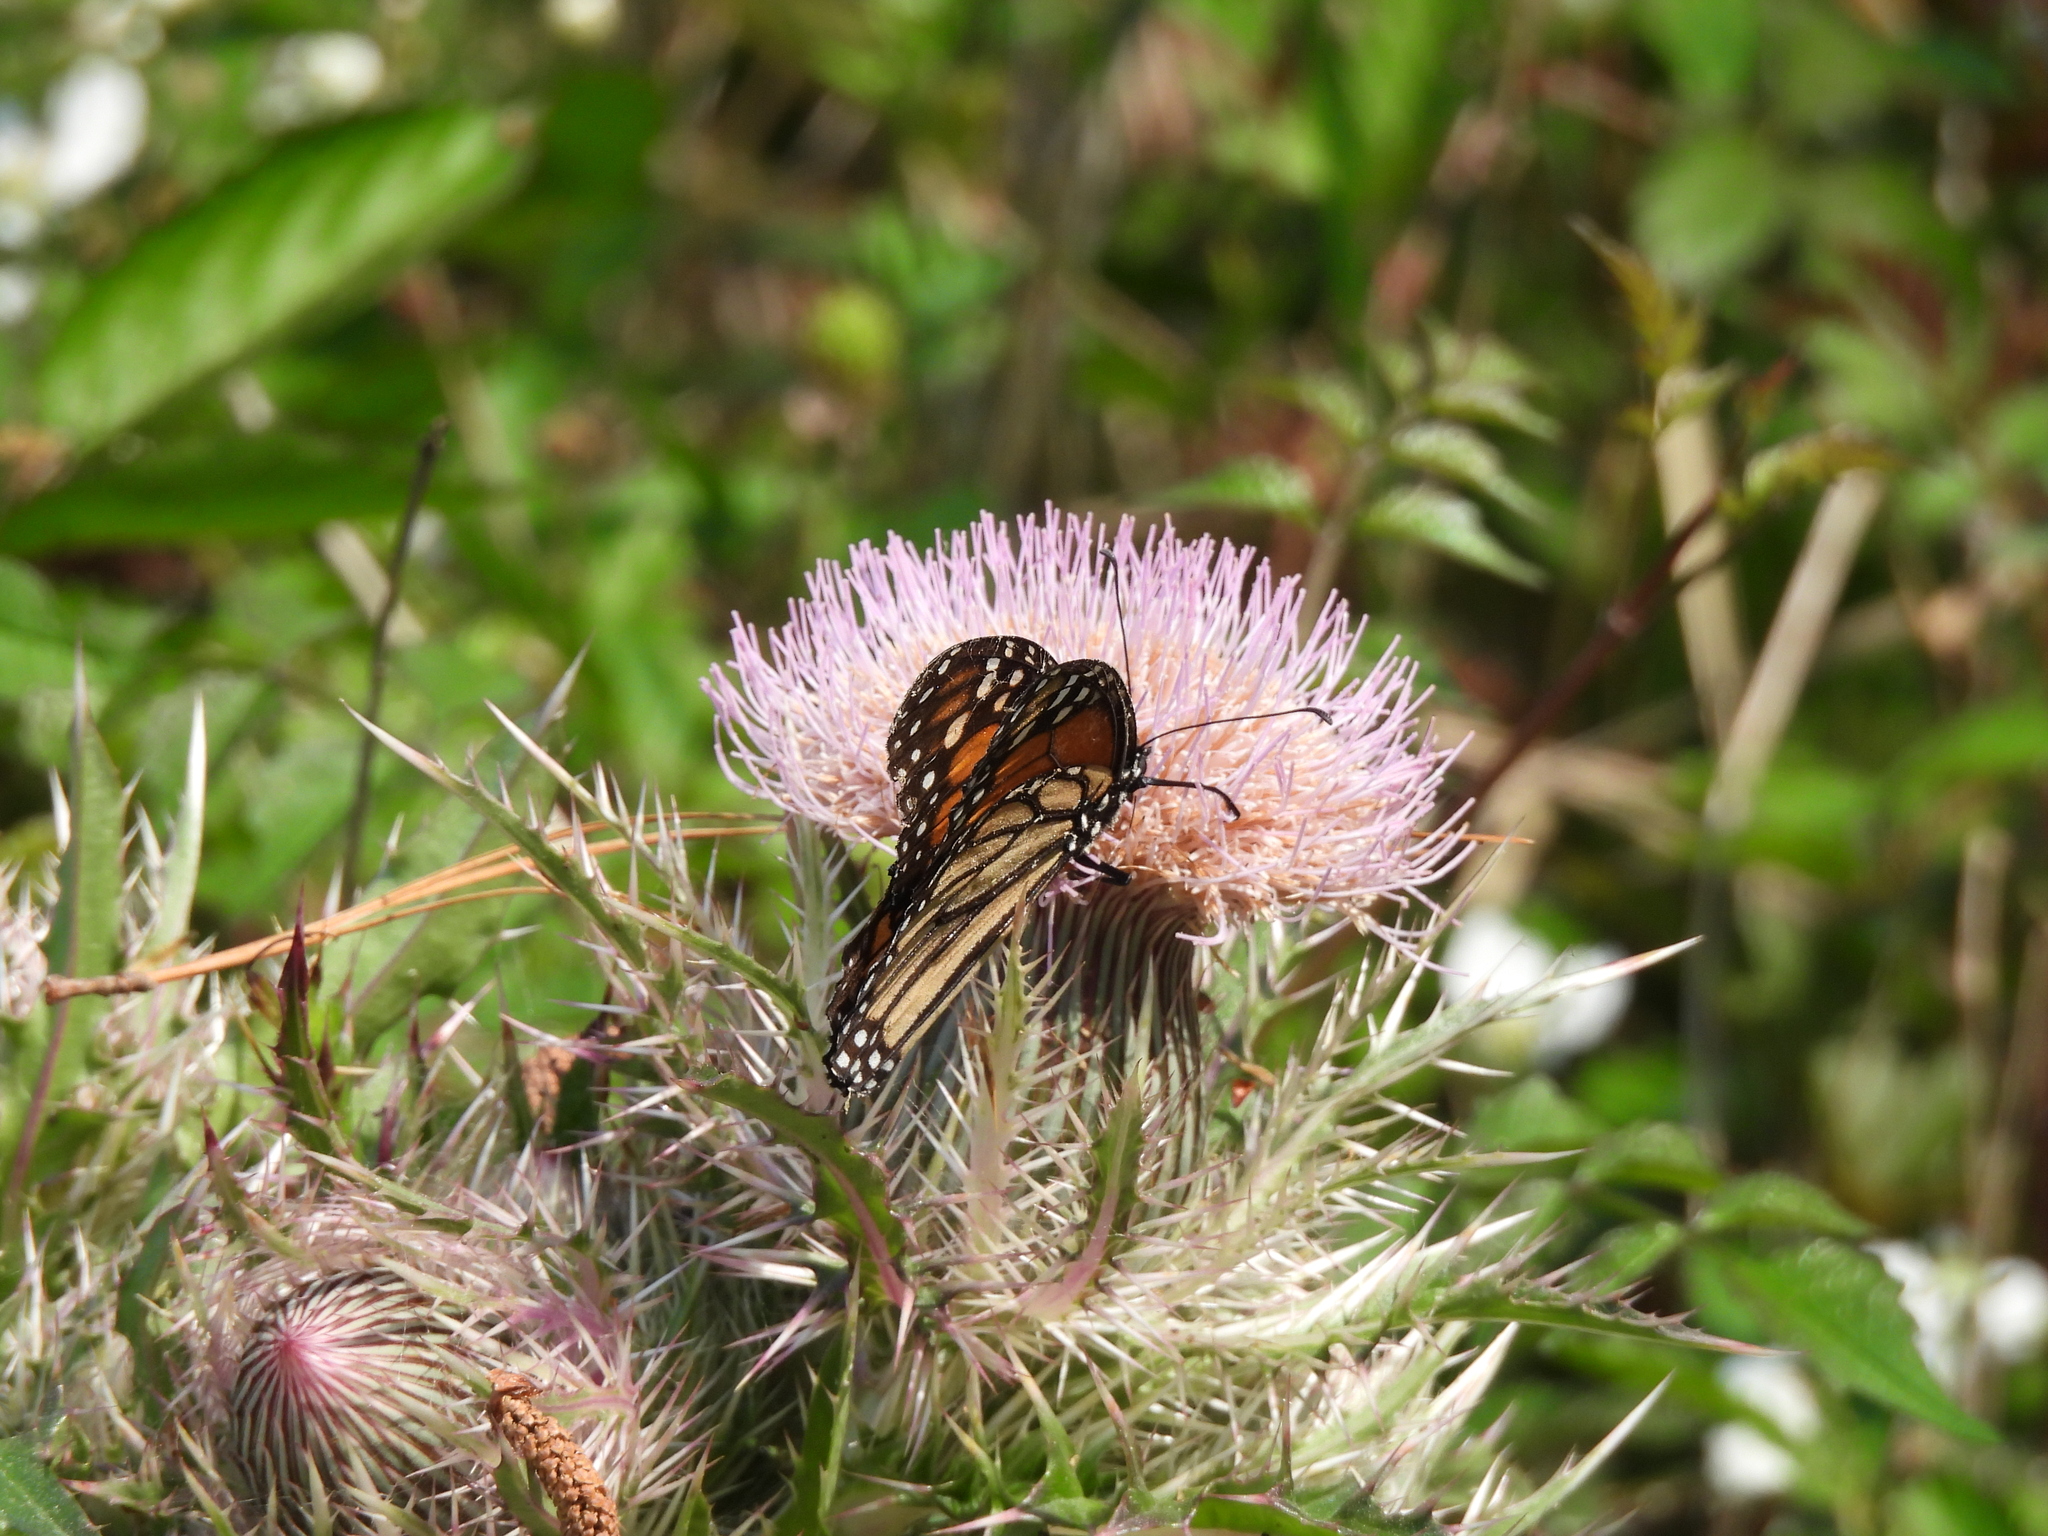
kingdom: Animalia
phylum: Arthropoda
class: Insecta
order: Lepidoptera
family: Nymphalidae
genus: Danaus
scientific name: Danaus plexippus
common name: Monarch
